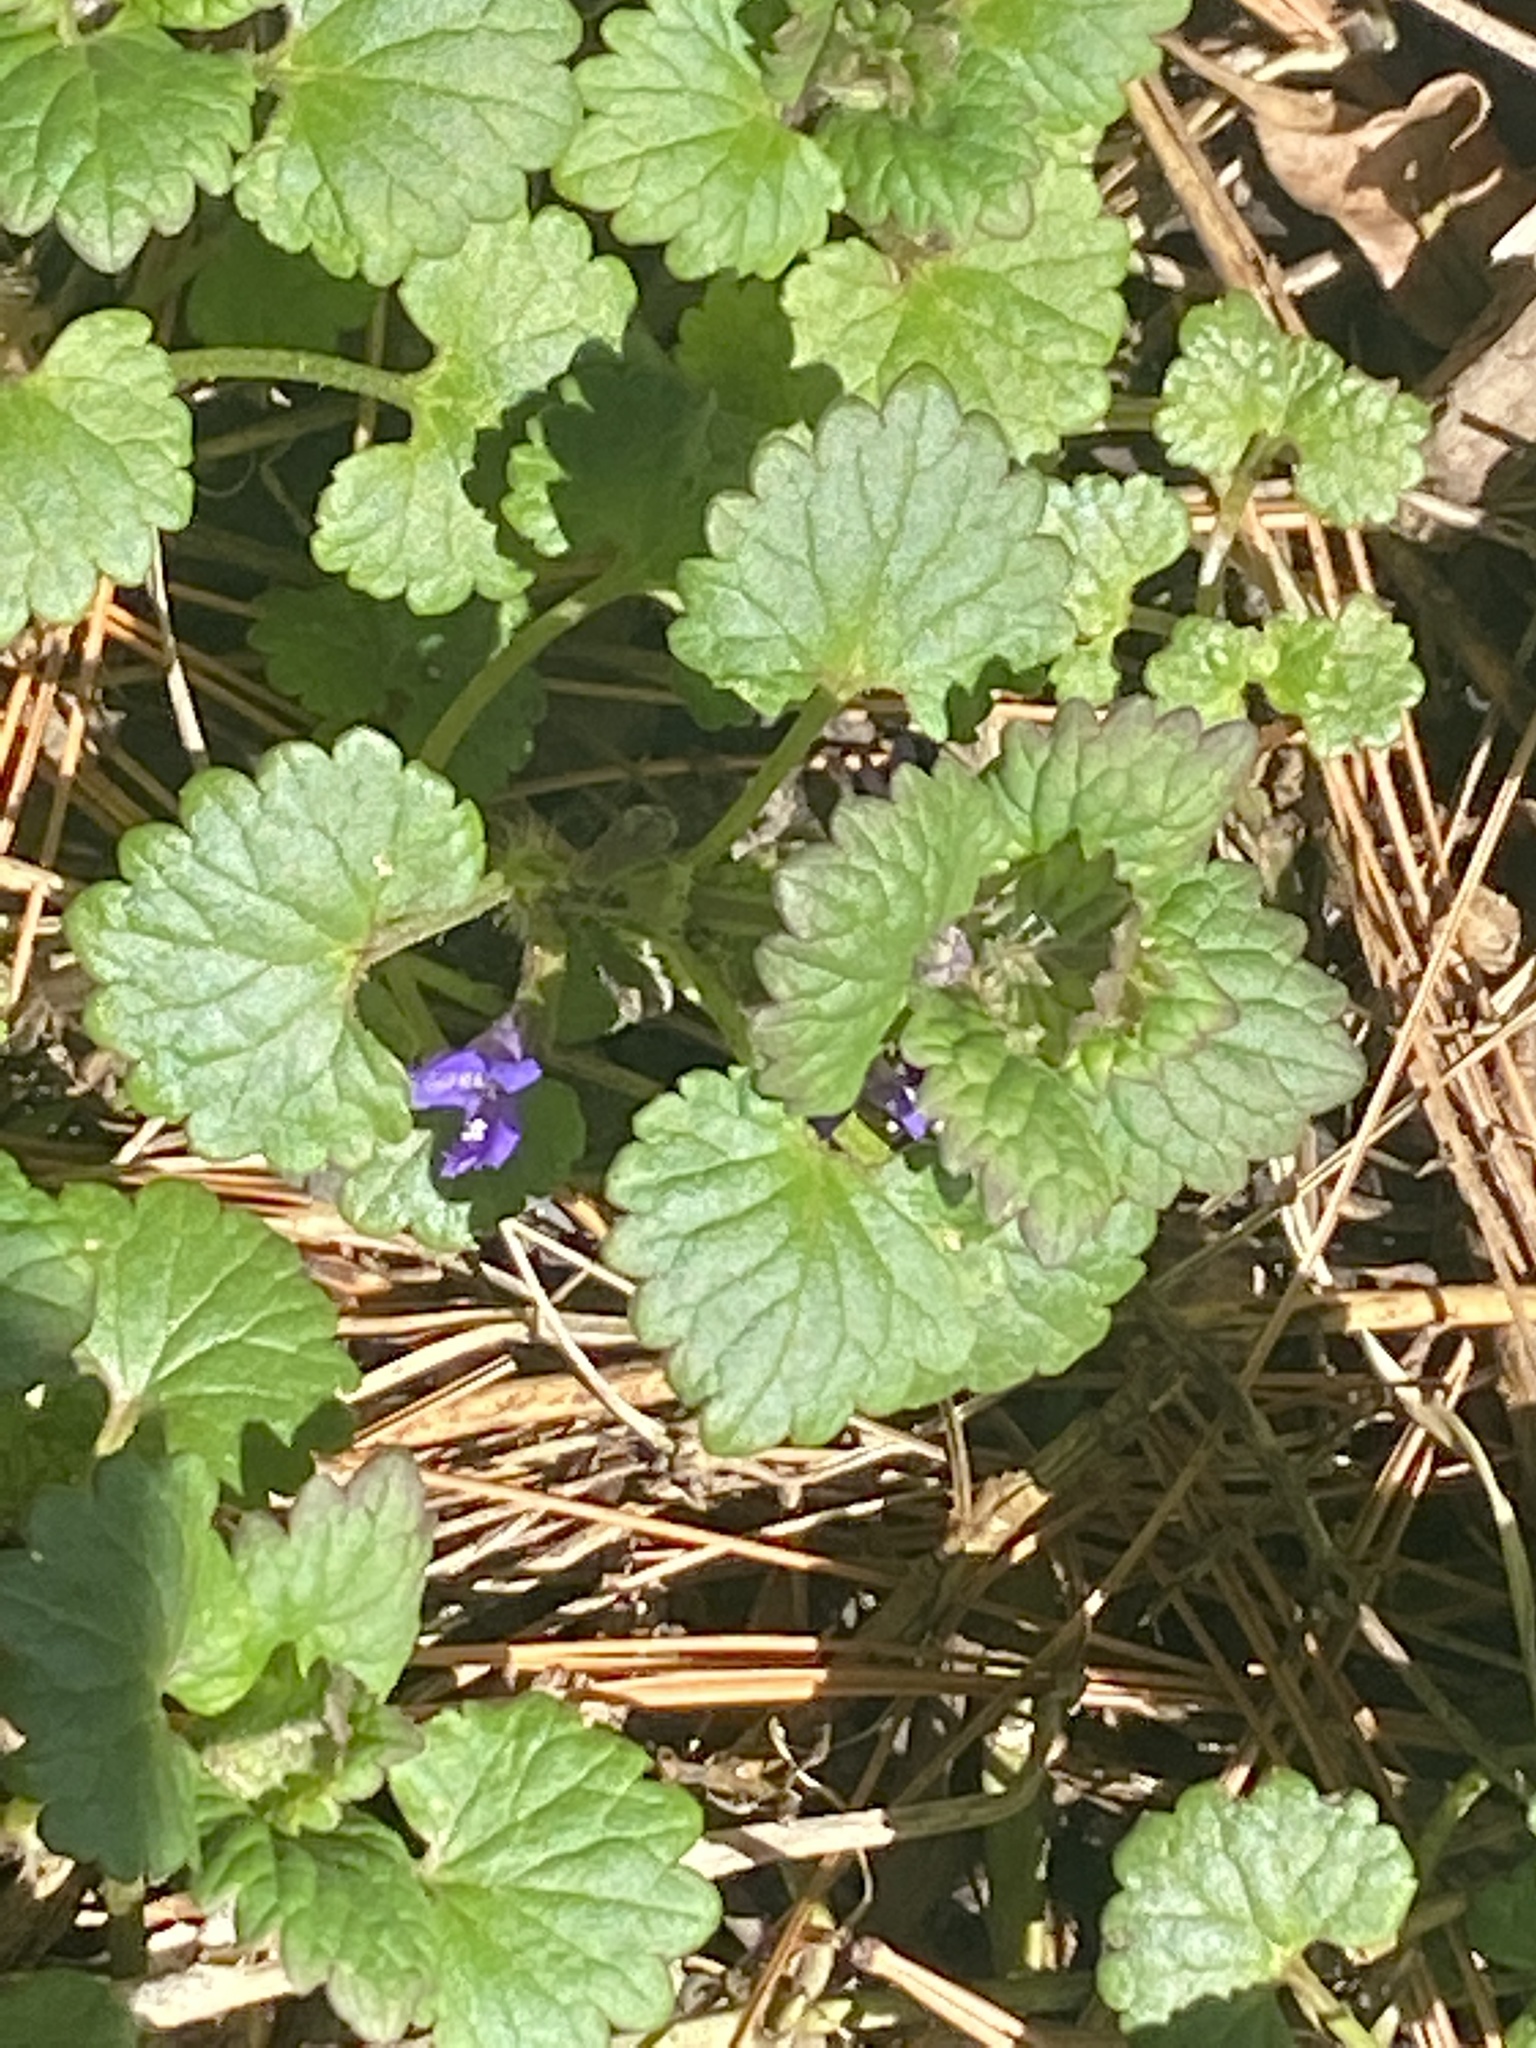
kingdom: Plantae
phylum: Tracheophyta
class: Magnoliopsida
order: Lamiales
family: Lamiaceae
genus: Glechoma
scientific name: Glechoma hederacea
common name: Ground ivy
